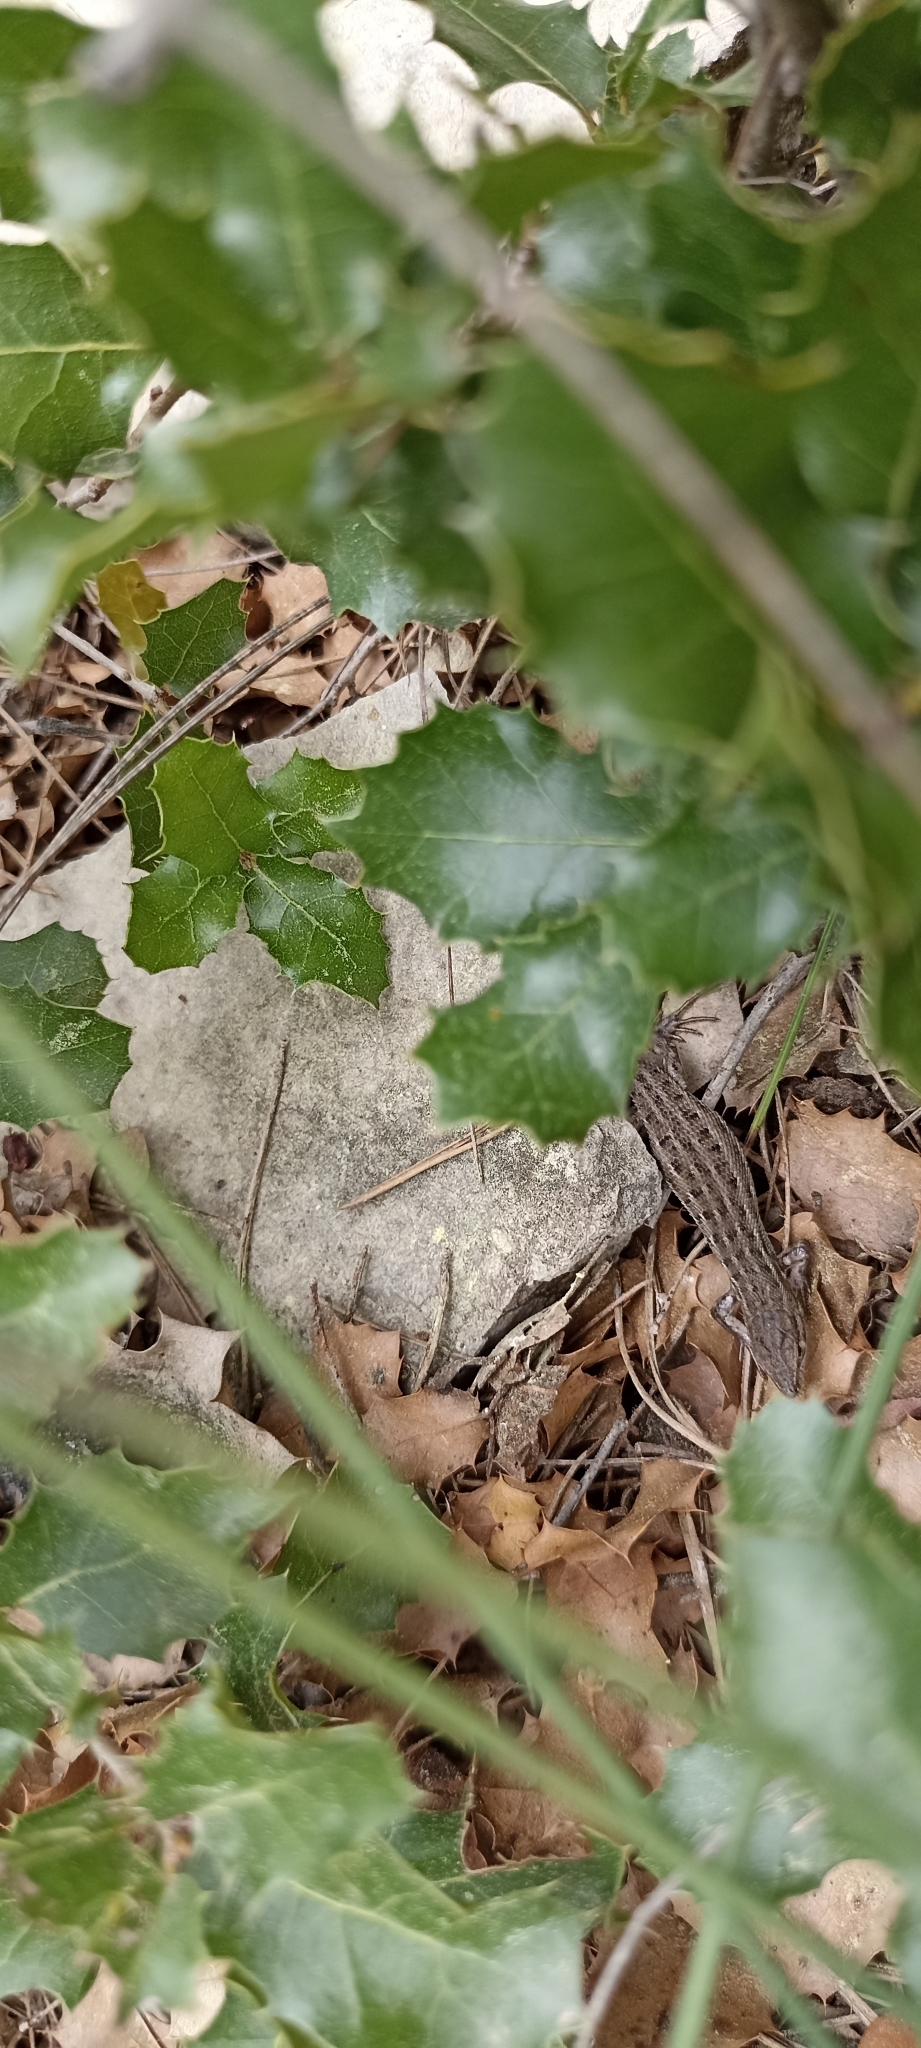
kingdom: Animalia
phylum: Chordata
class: Squamata
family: Lacertidae
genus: Psammodromus
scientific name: Psammodromus edwarsianus
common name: East iberian psammodromus
